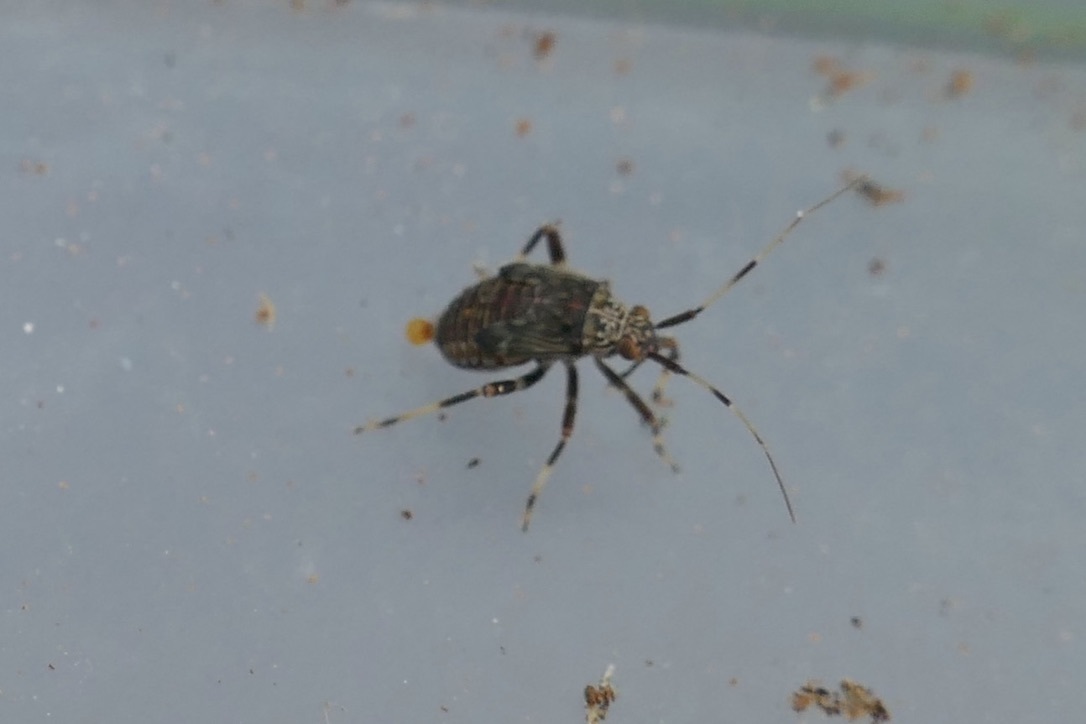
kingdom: Animalia
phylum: Arthropoda
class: Insecta
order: Hemiptera
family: Miridae
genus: Mermitelocerus
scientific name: Mermitelocerus schmidtii
